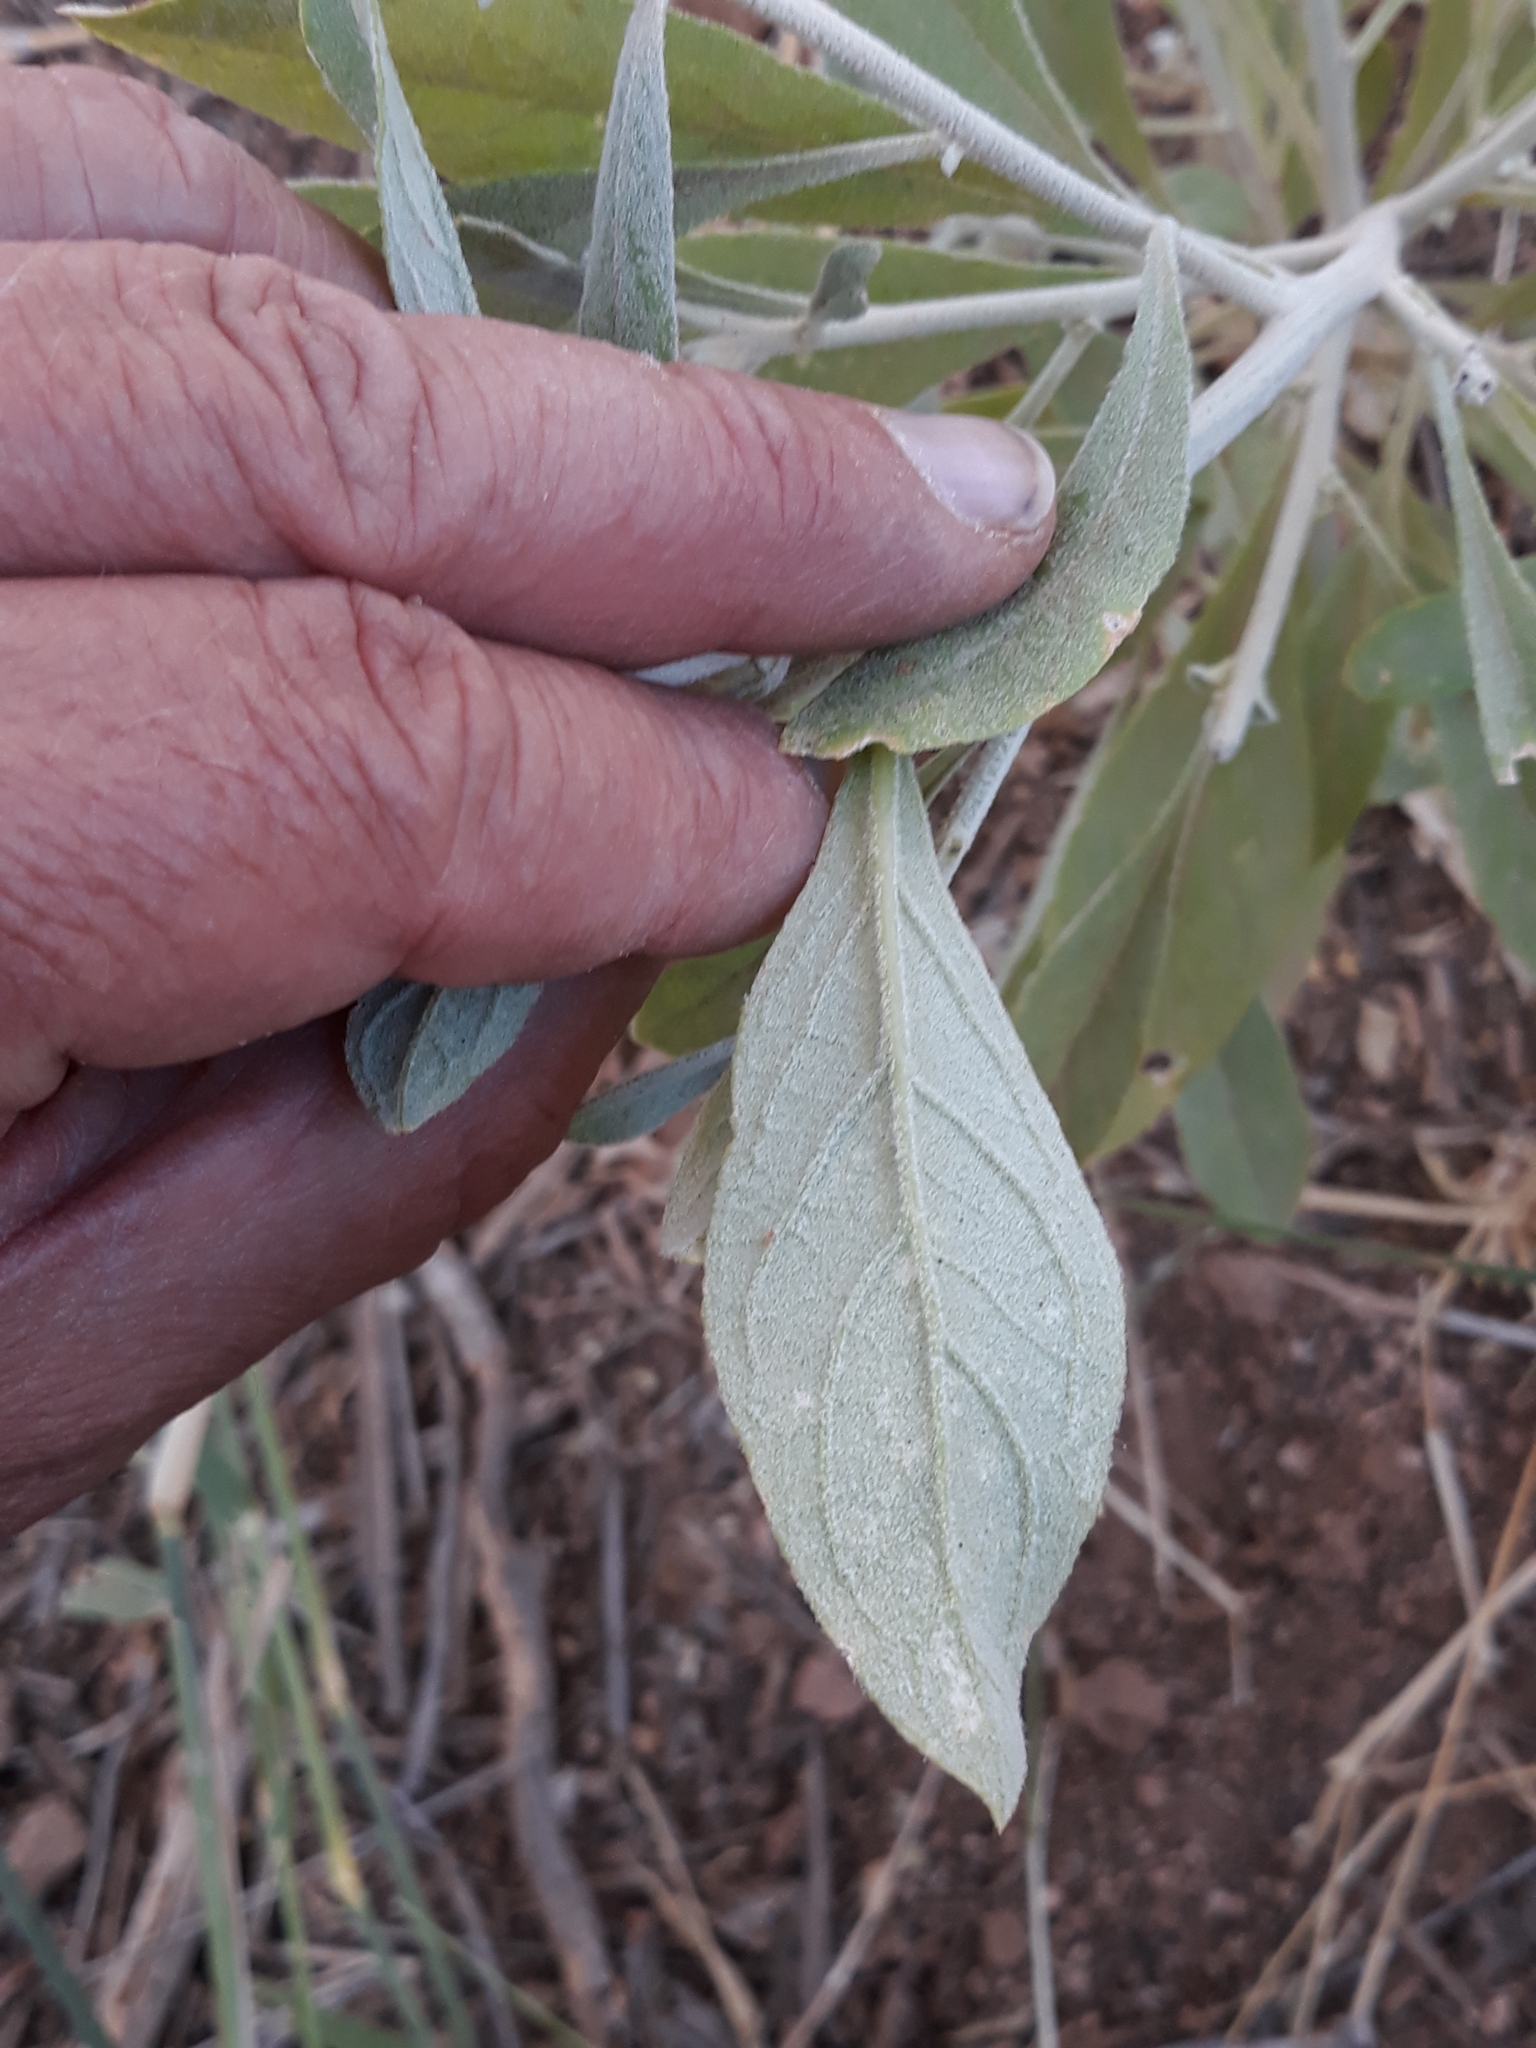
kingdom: Plantae
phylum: Tracheophyta
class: Magnoliopsida
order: Caryophyllales
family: Amaranthaceae
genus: Aerva
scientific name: Aerva javanica
